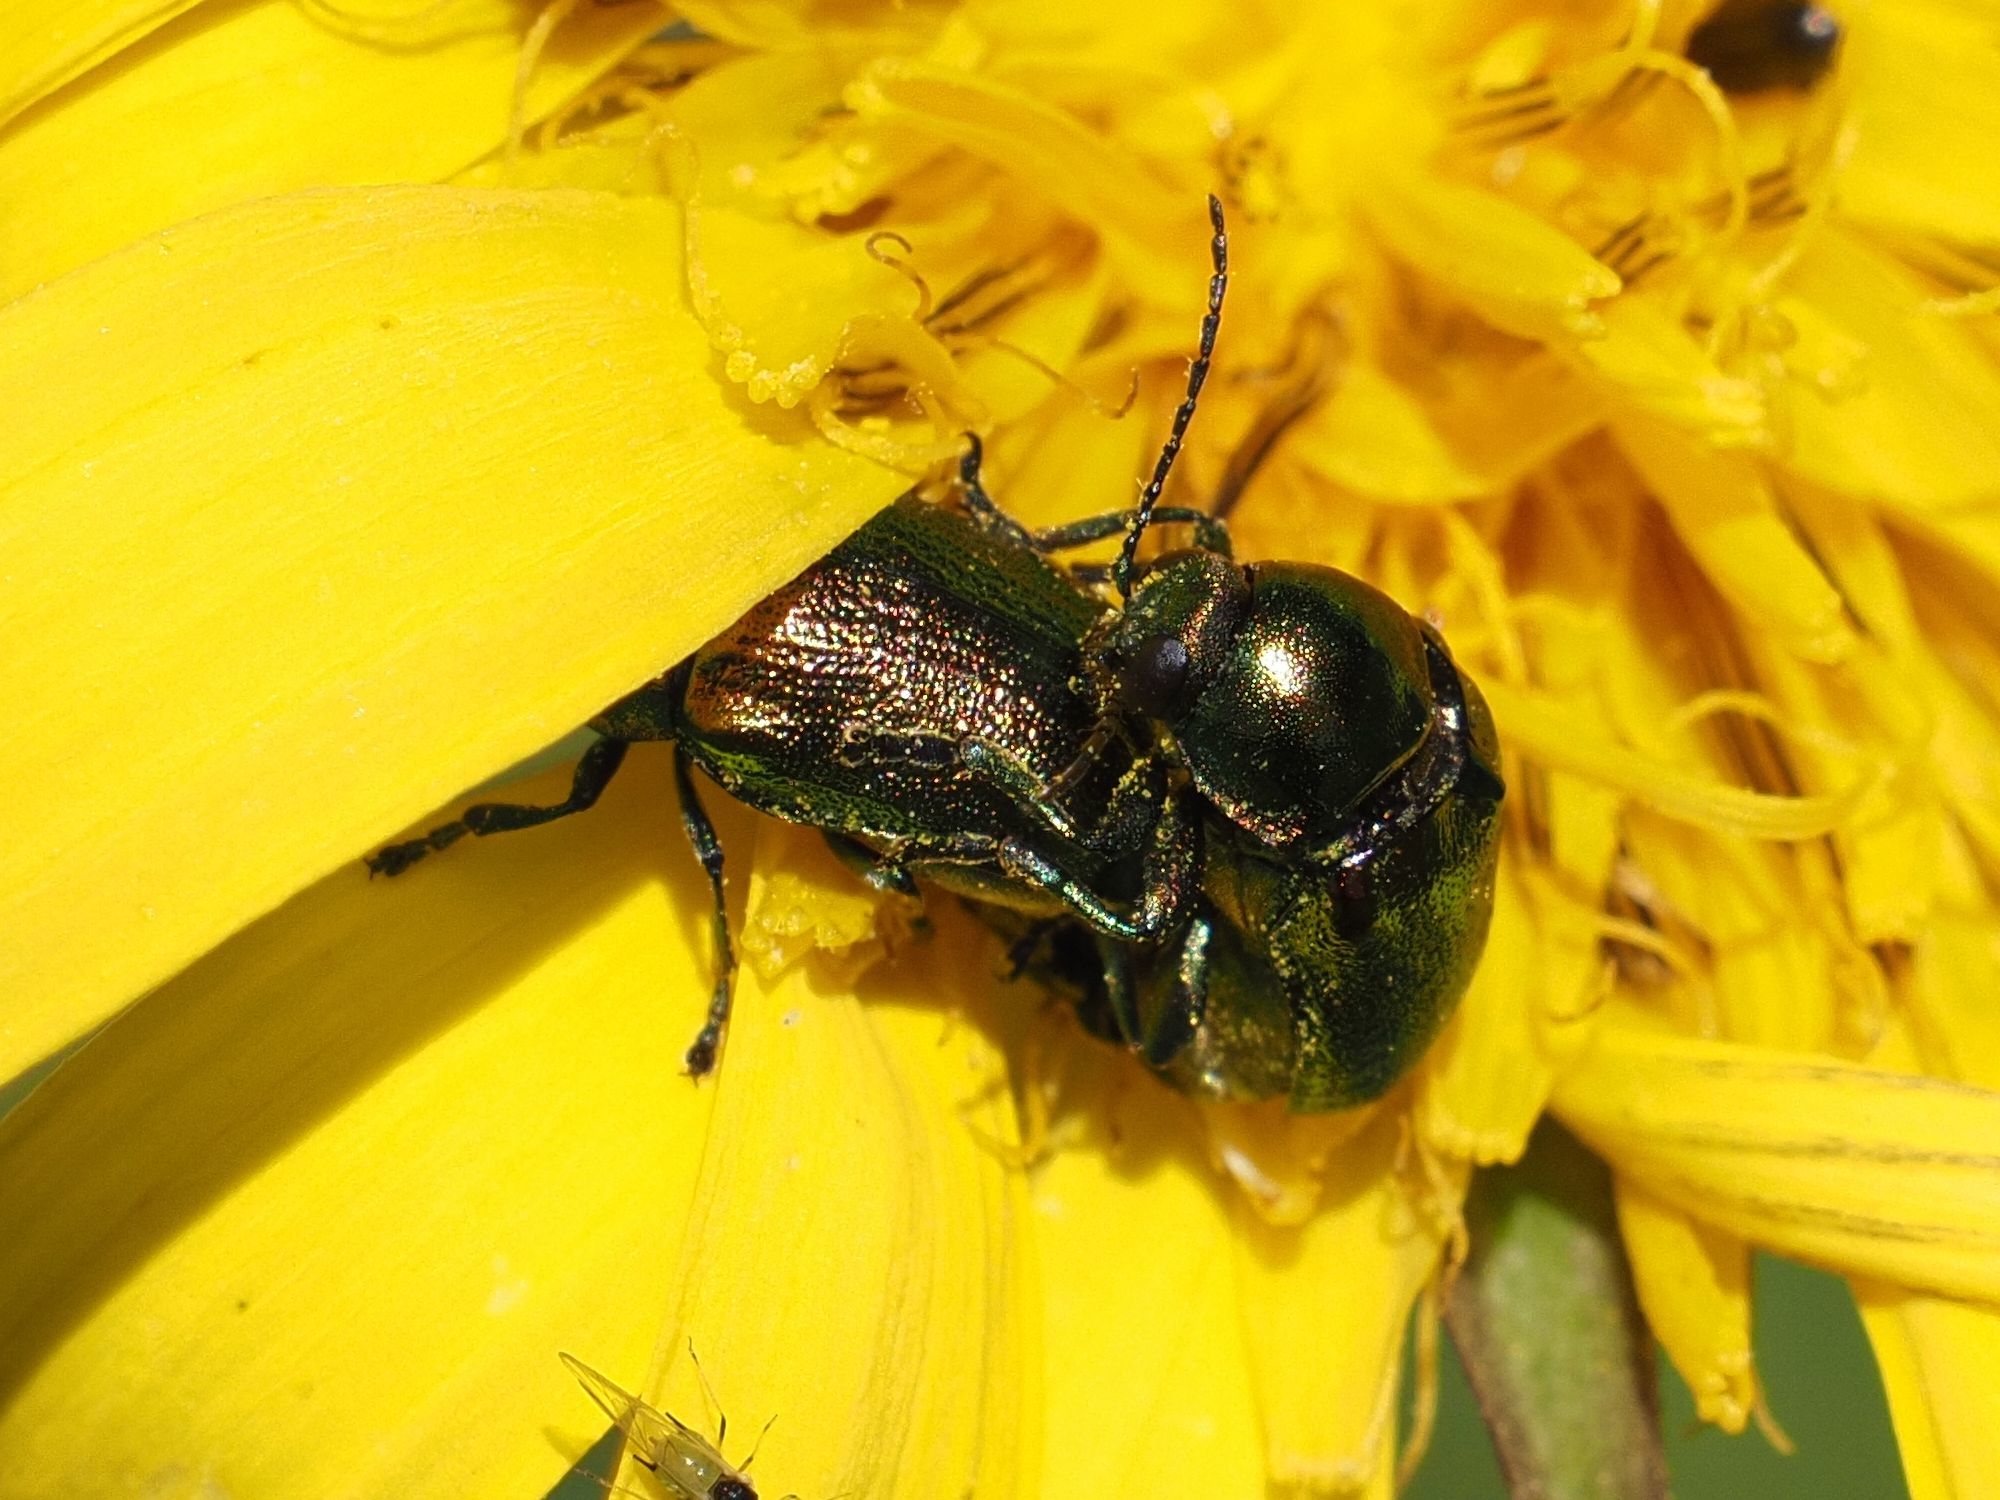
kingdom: Animalia
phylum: Arthropoda
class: Insecta
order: Coleoptera
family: Chrysomelidae
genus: Cryptocephalus
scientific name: Cryptocephalus
